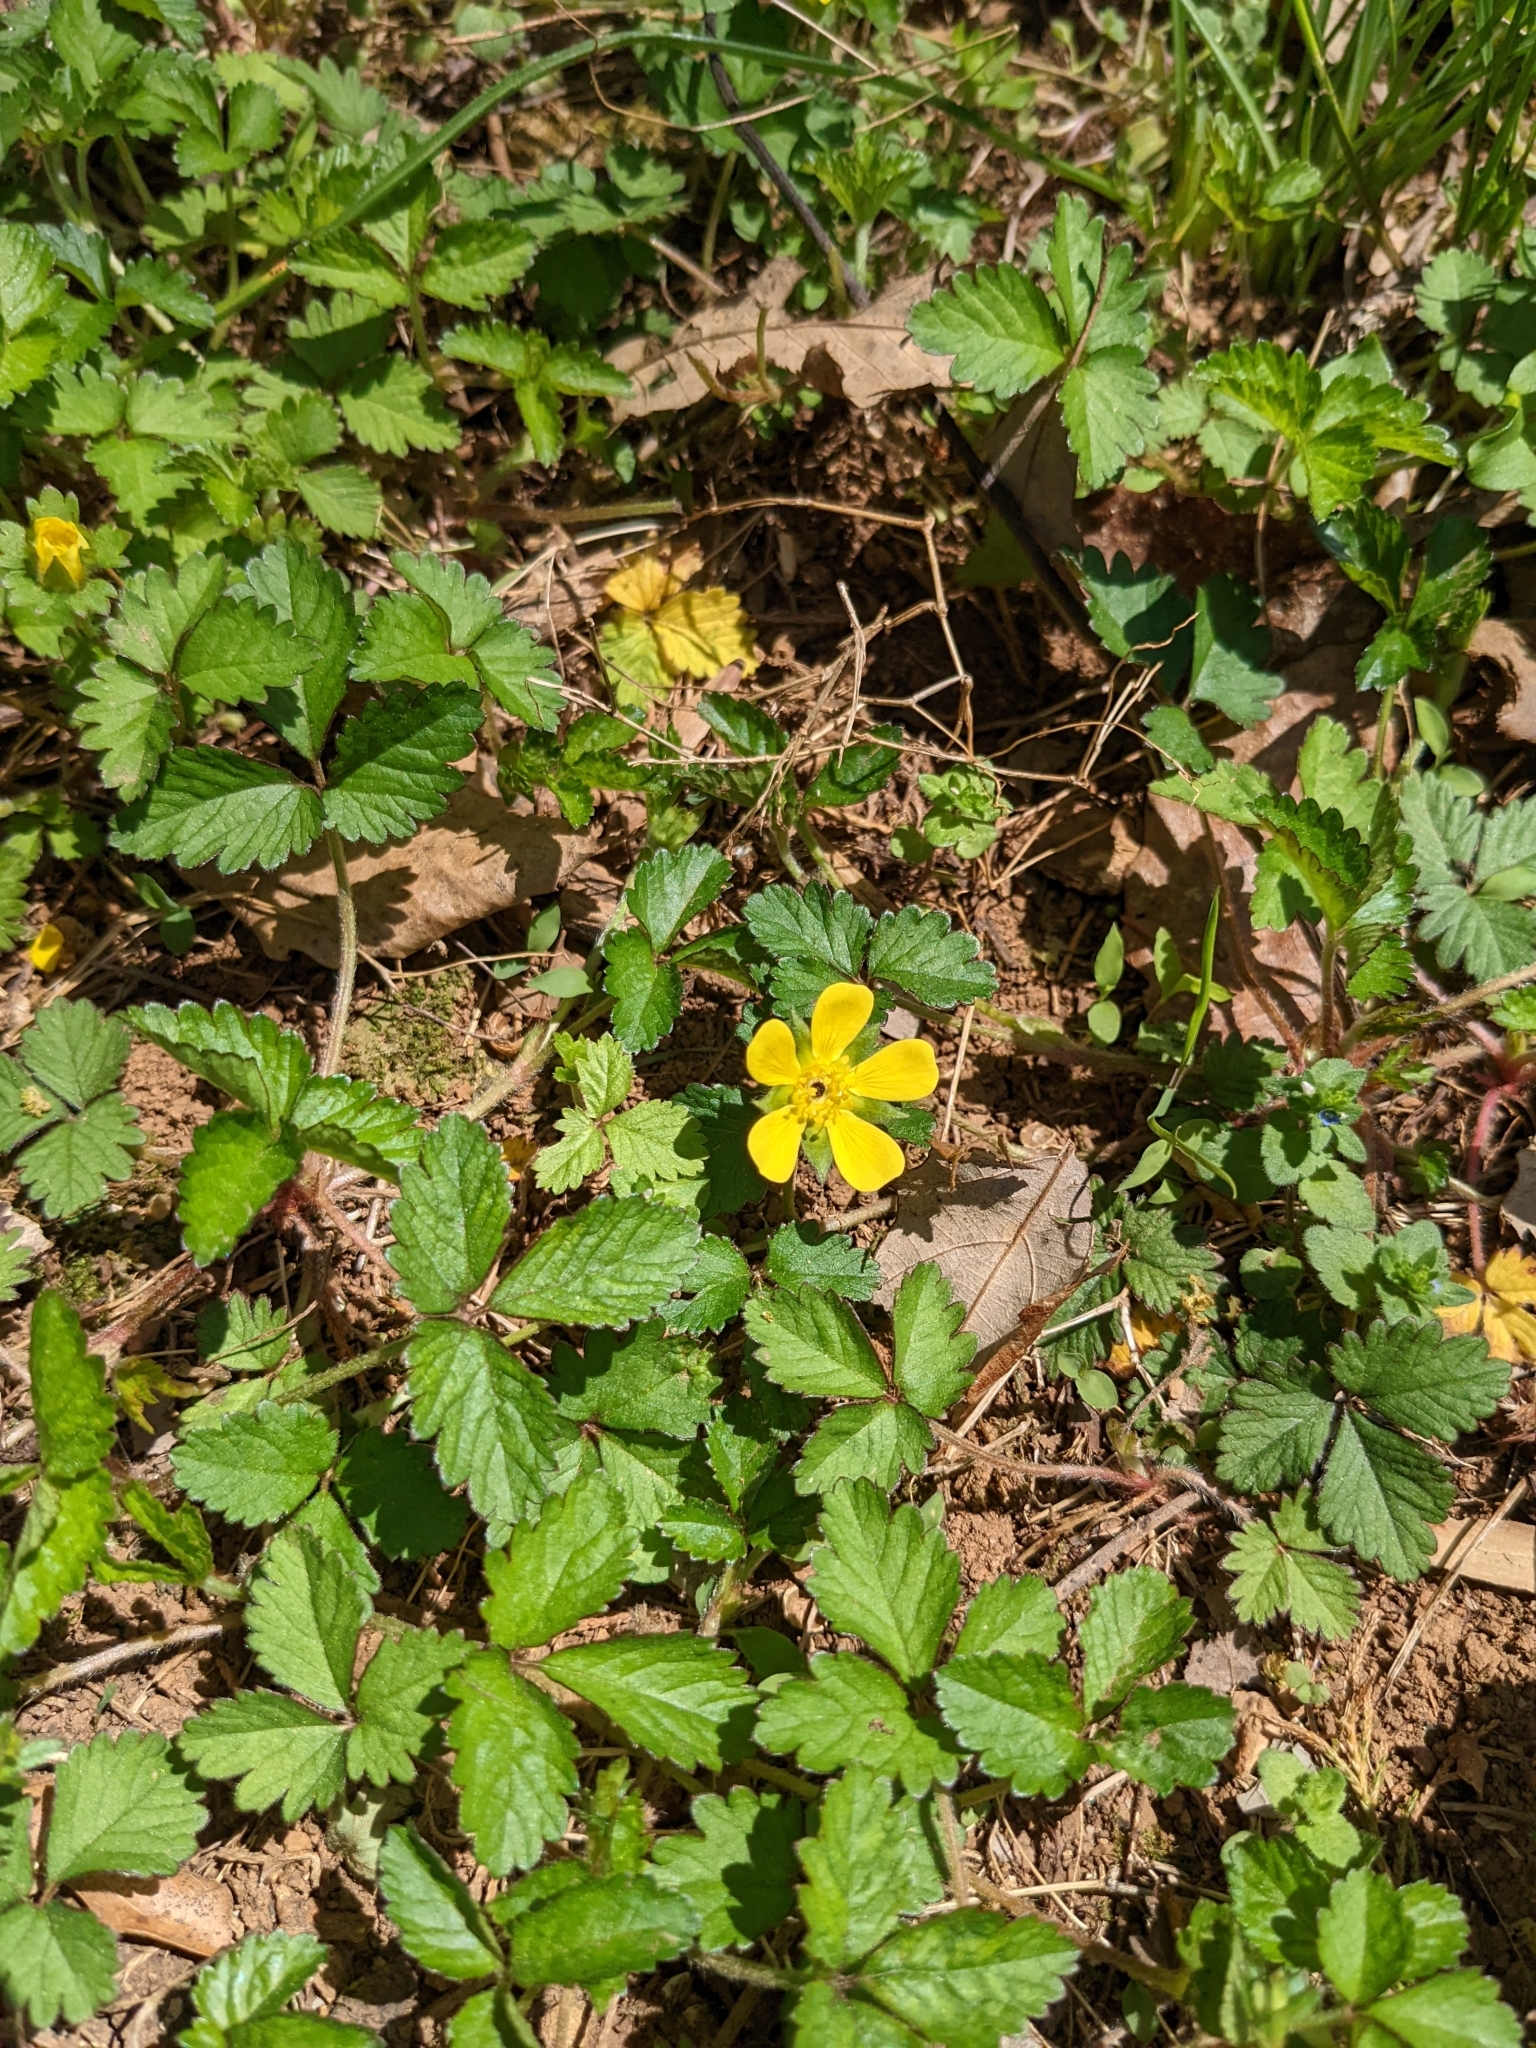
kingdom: Plantae
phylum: Tracheophyta
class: Magnoliopsida
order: Rosales
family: Rosaceae
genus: Potentilla
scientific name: Potentilla indica
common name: Yellow-flowered strawberry
